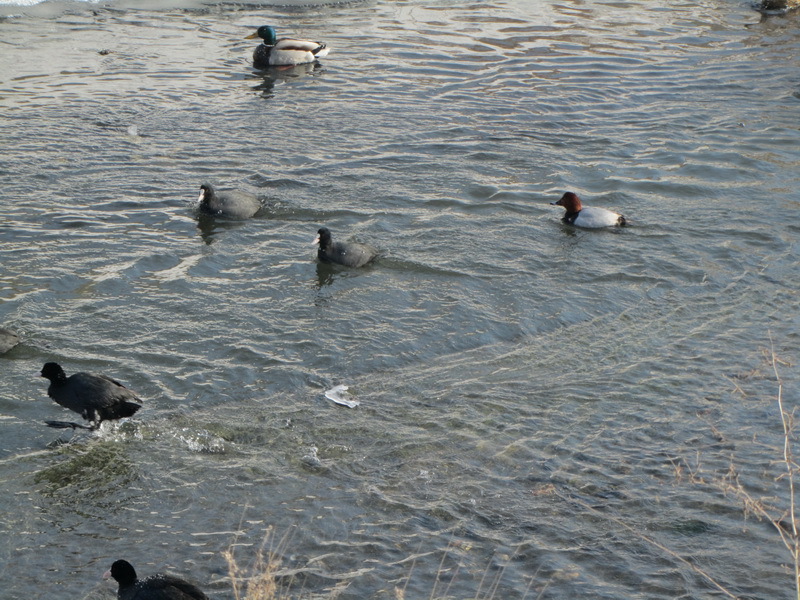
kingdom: Animalia
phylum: Chordata
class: Aves
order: Anseriformes
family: Anatidae
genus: Aythya
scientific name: Aythya ferina
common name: Common pochard
